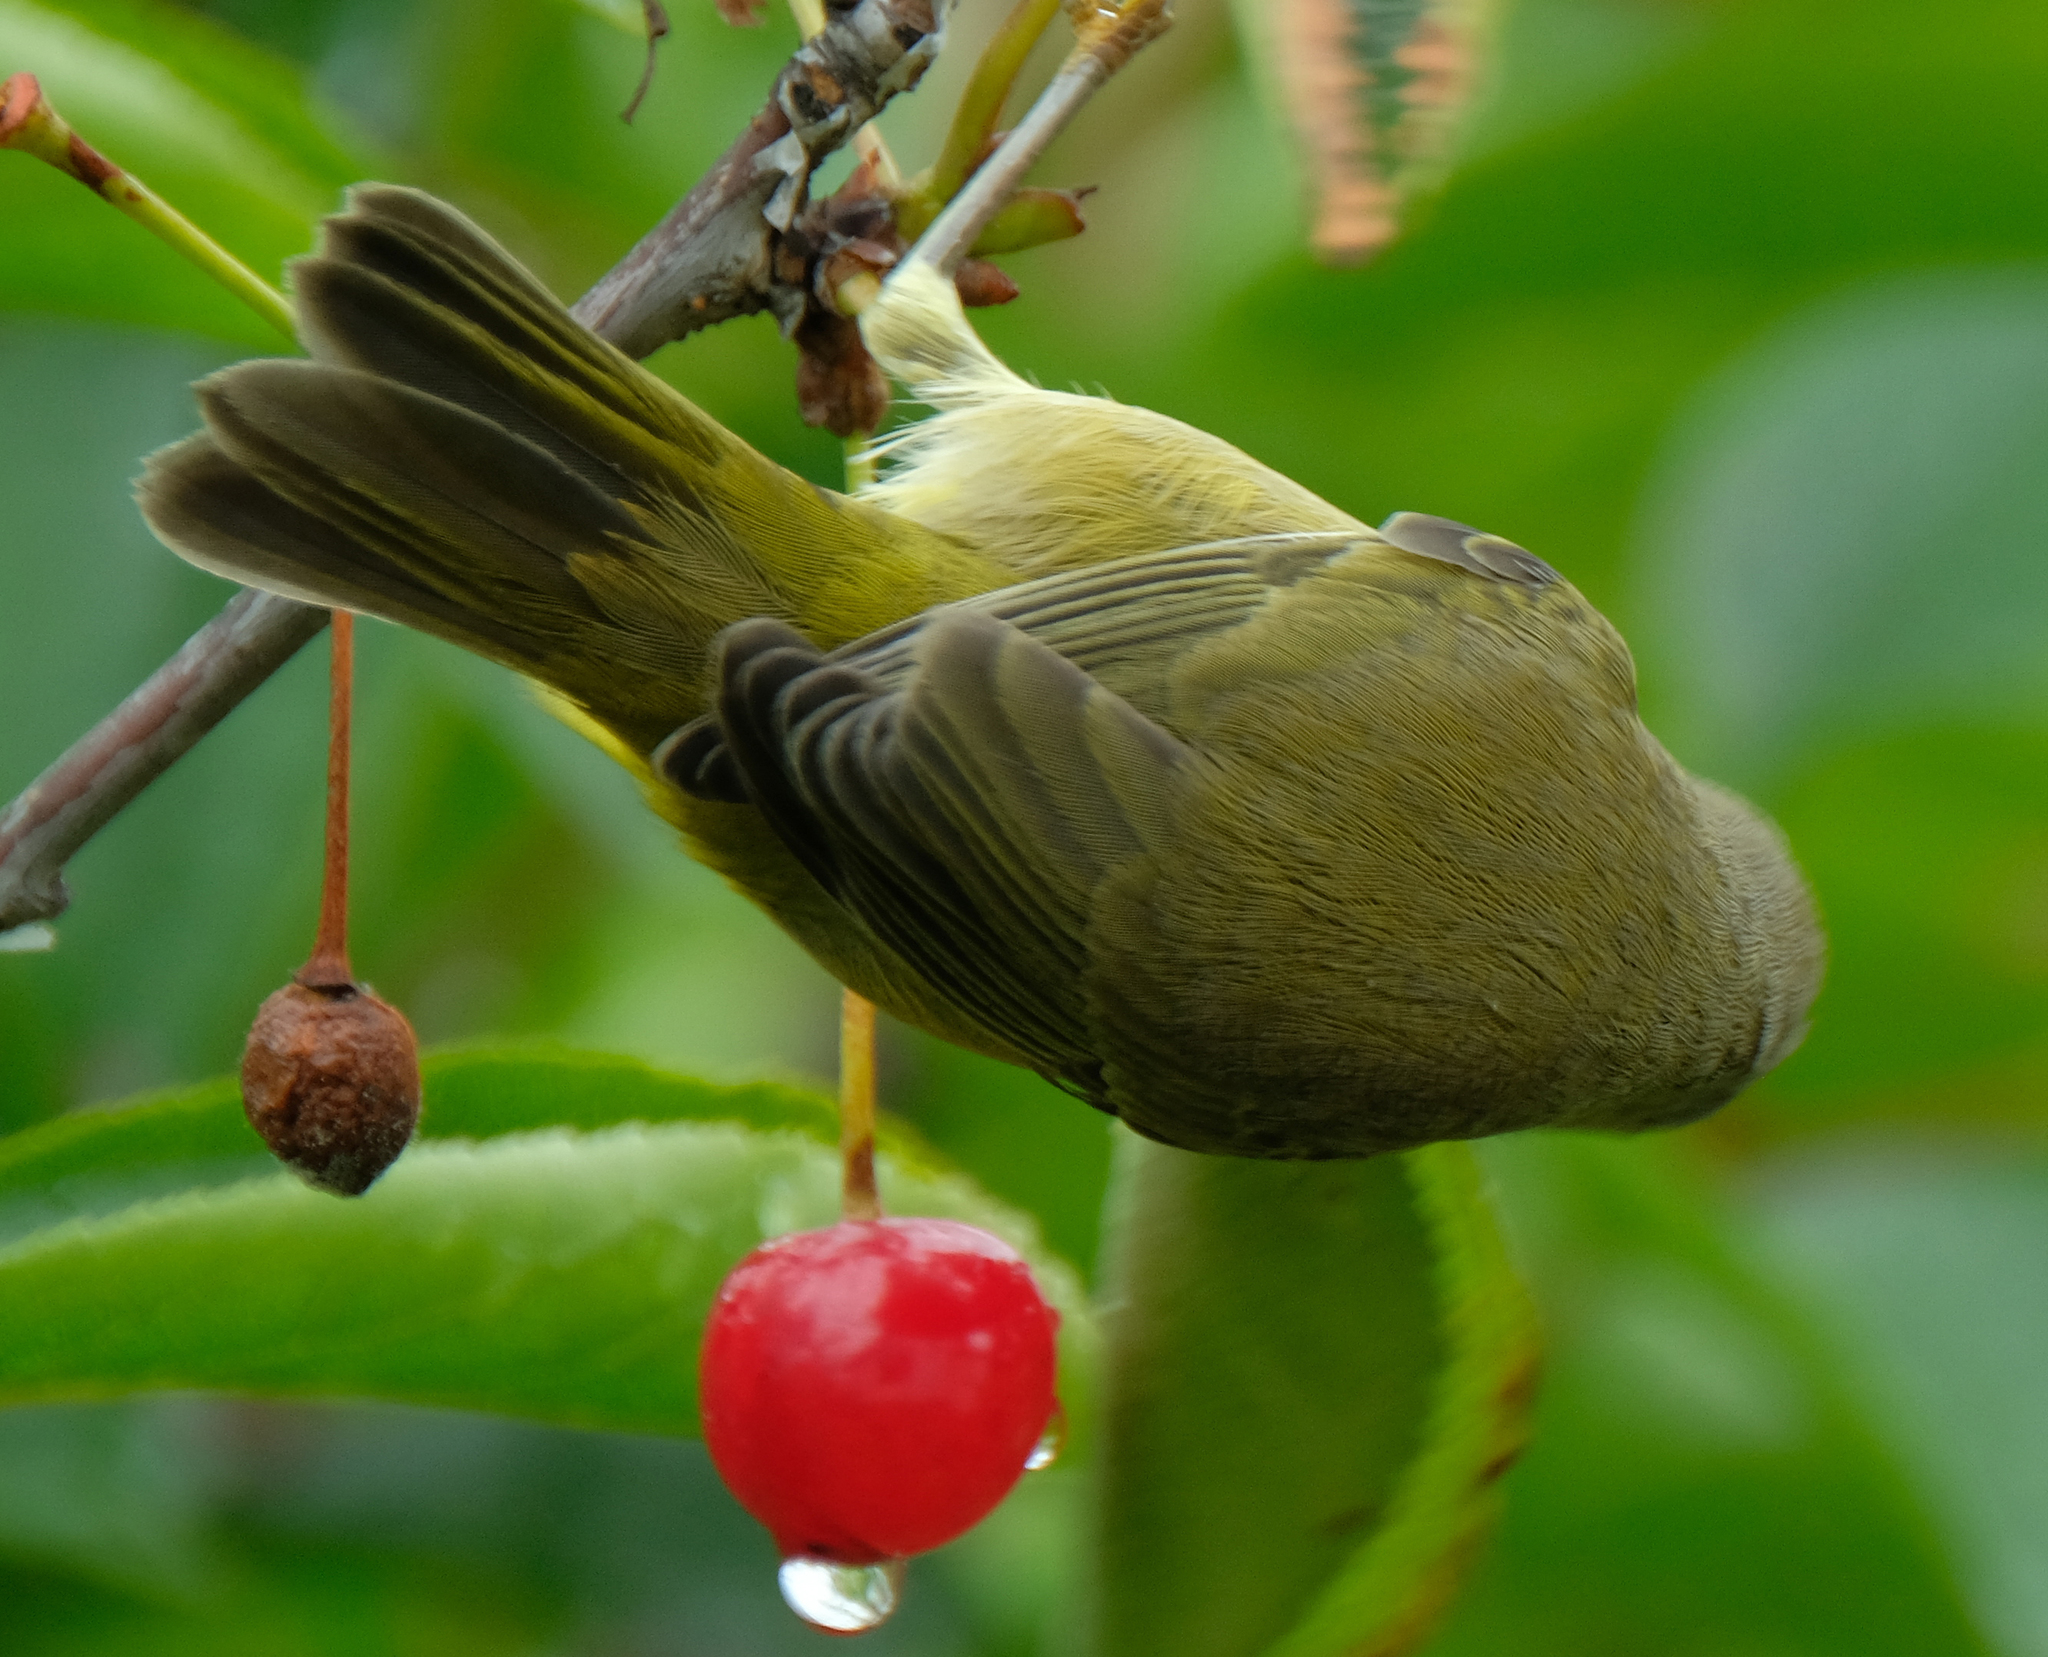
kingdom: Animalia
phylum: Chordata
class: Aves
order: Passeriformes
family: Parulidae
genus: Leiothlypis
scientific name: Leiothlypis celata
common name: Orange-crowned warbler
